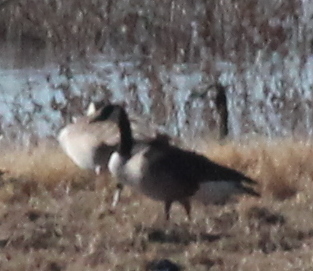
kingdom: Animalia
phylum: Chordata
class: Aves
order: Anseriformes
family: Anatidae
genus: Branta
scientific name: Branta canadensis
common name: Canada goose
